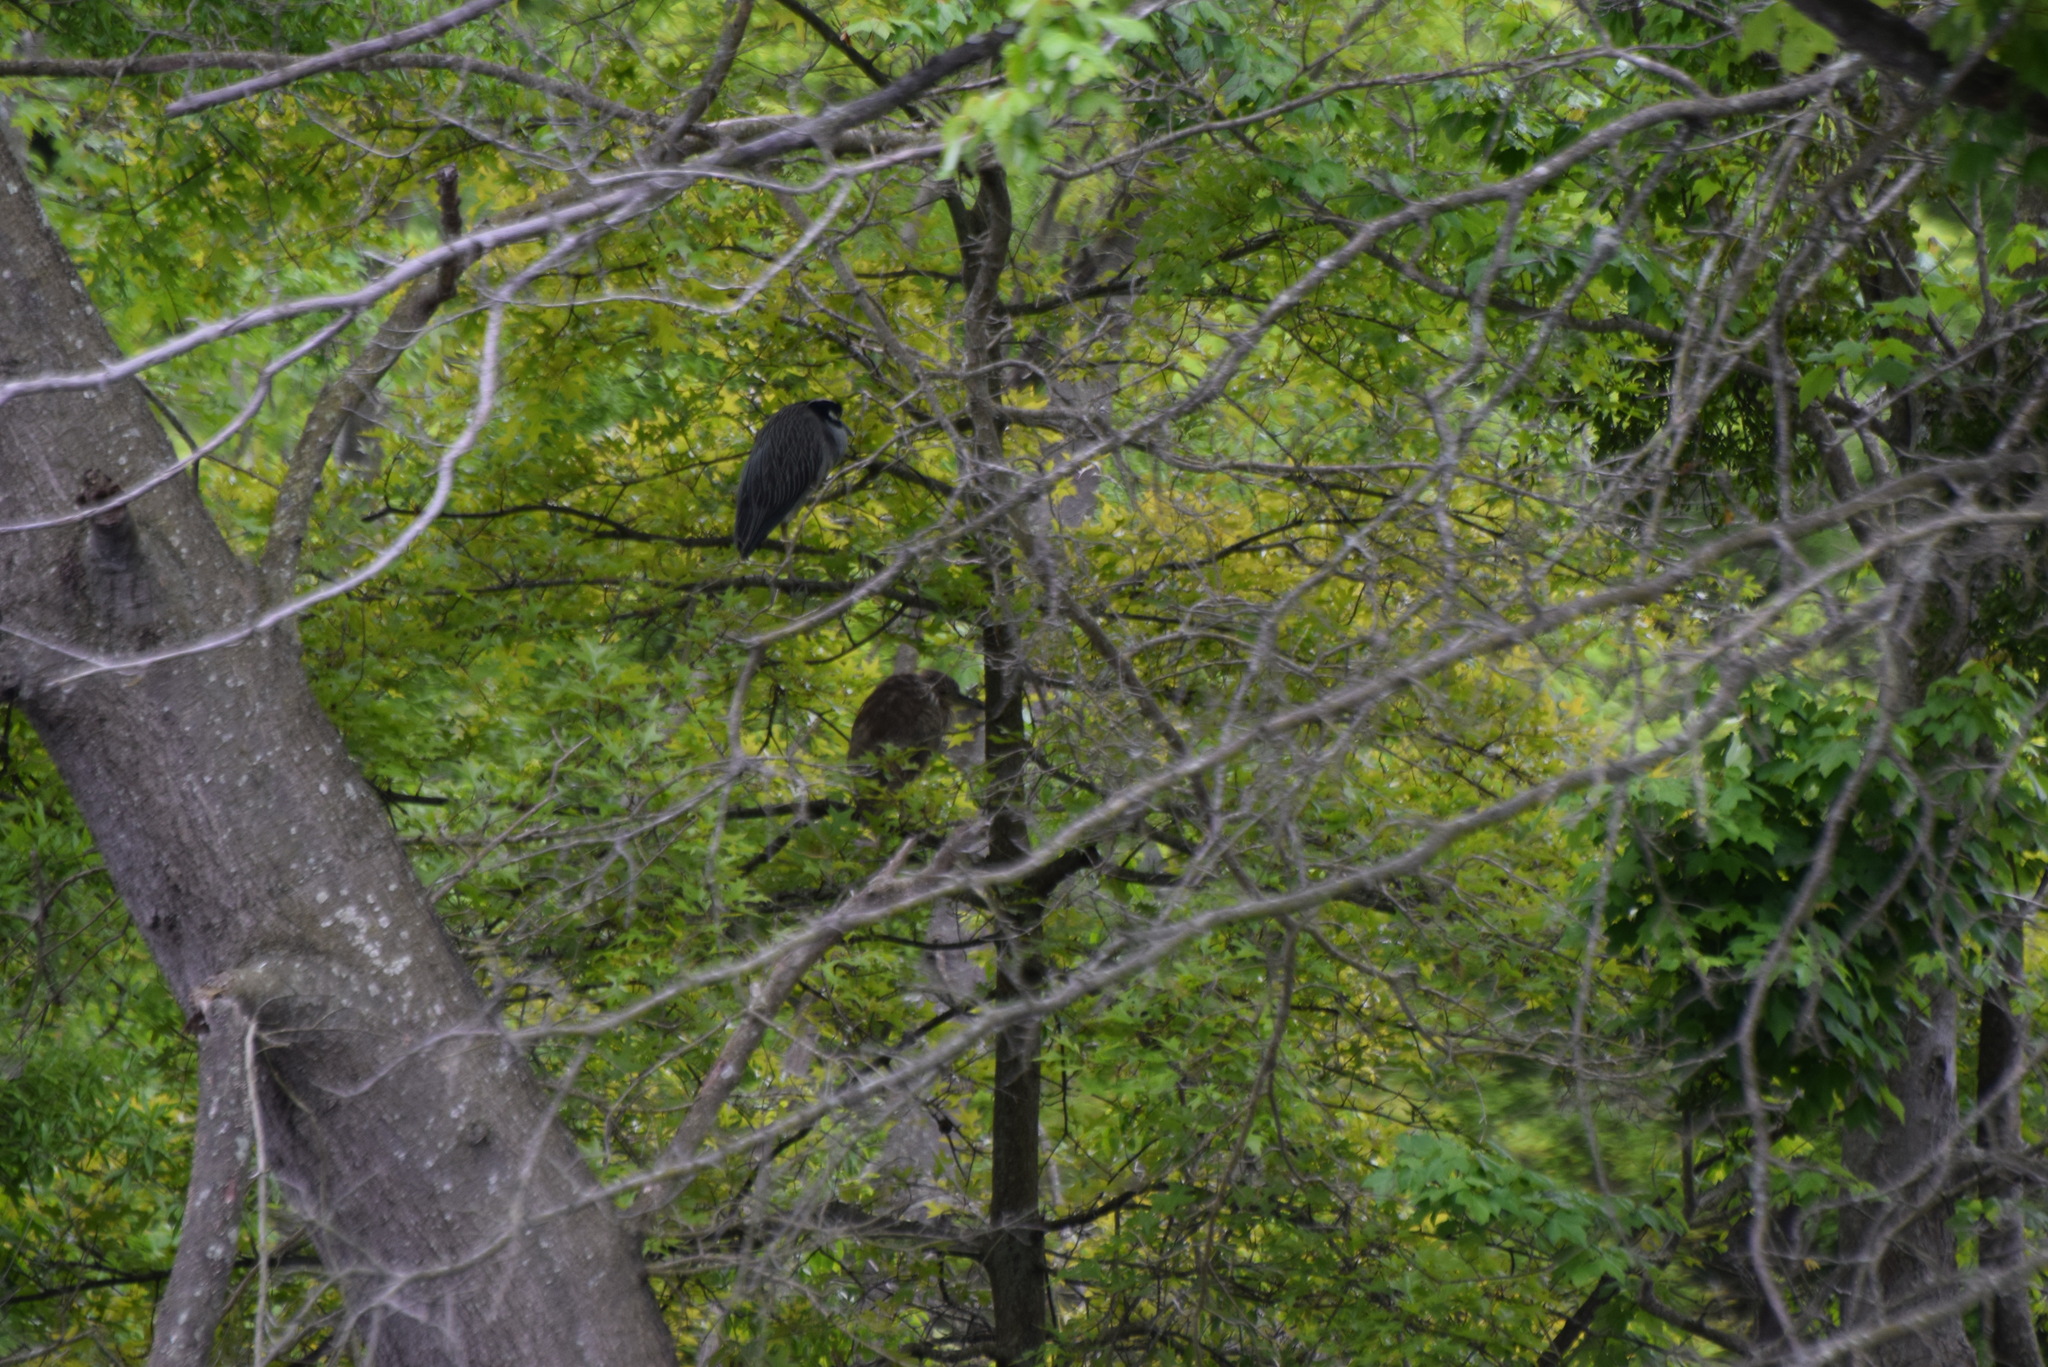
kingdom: Animalia
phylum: Chordata
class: Aves
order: Pelecaniformes
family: Ardeidae
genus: Nyctanassa
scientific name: Nyctanassa violacea
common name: Yellow-crowned night heron
